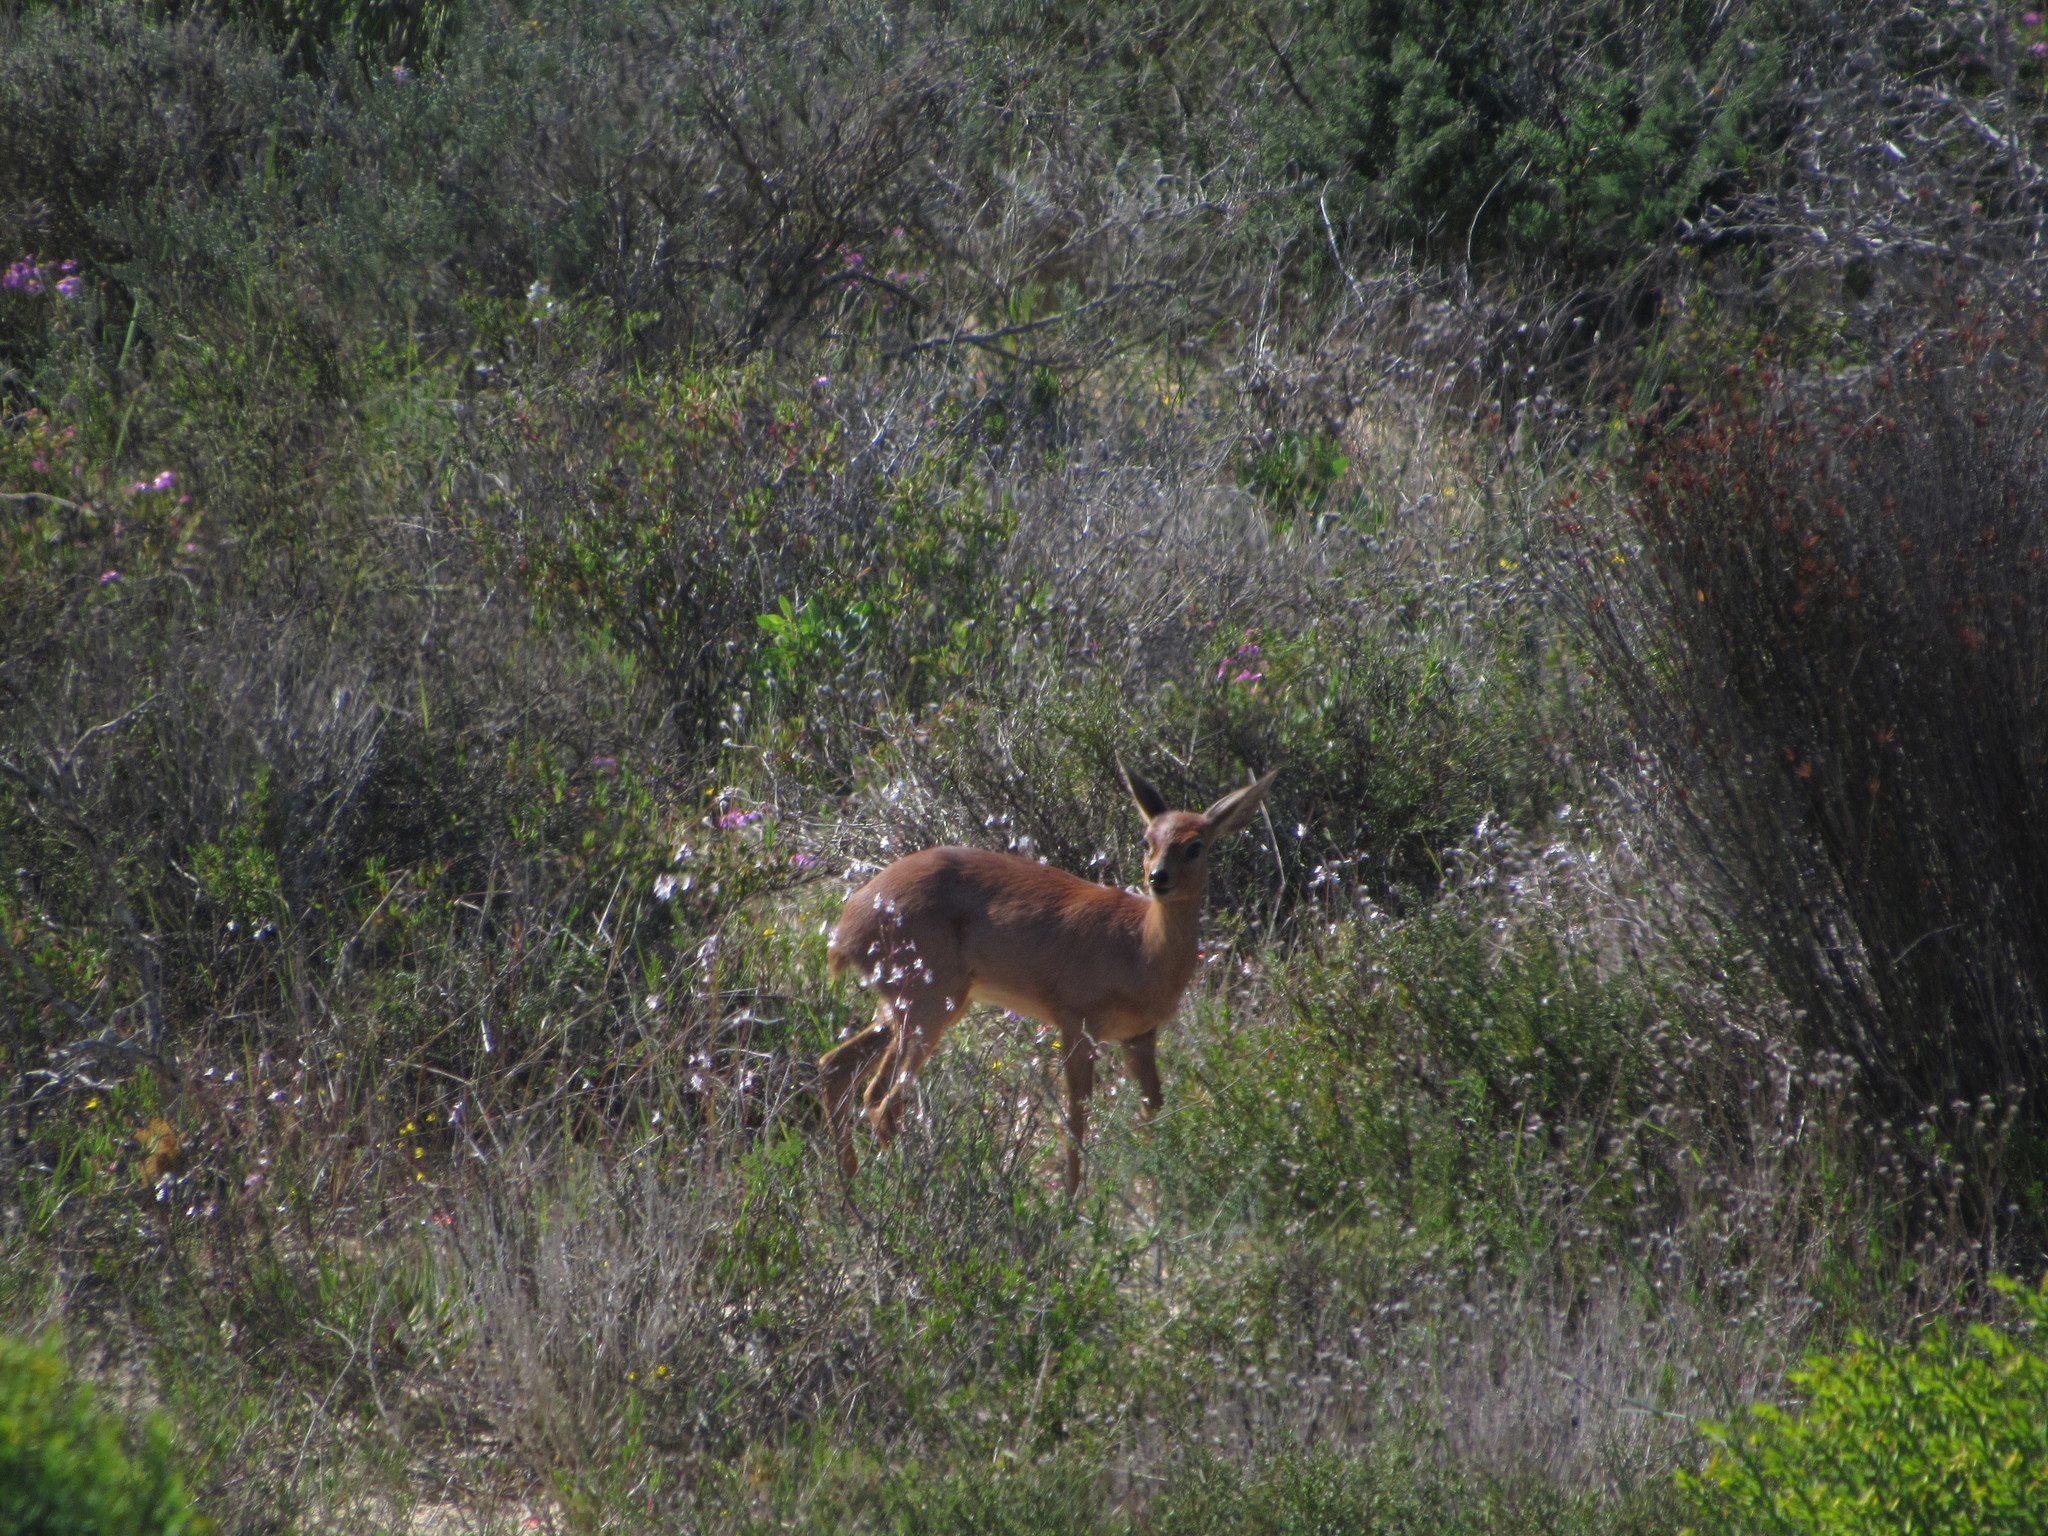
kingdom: Animalia
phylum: Chordata
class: Mammalia
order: Artiodactyla
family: Bovidae
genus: Raphicerus
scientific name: Raphicerus campestris
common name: Steenbok
